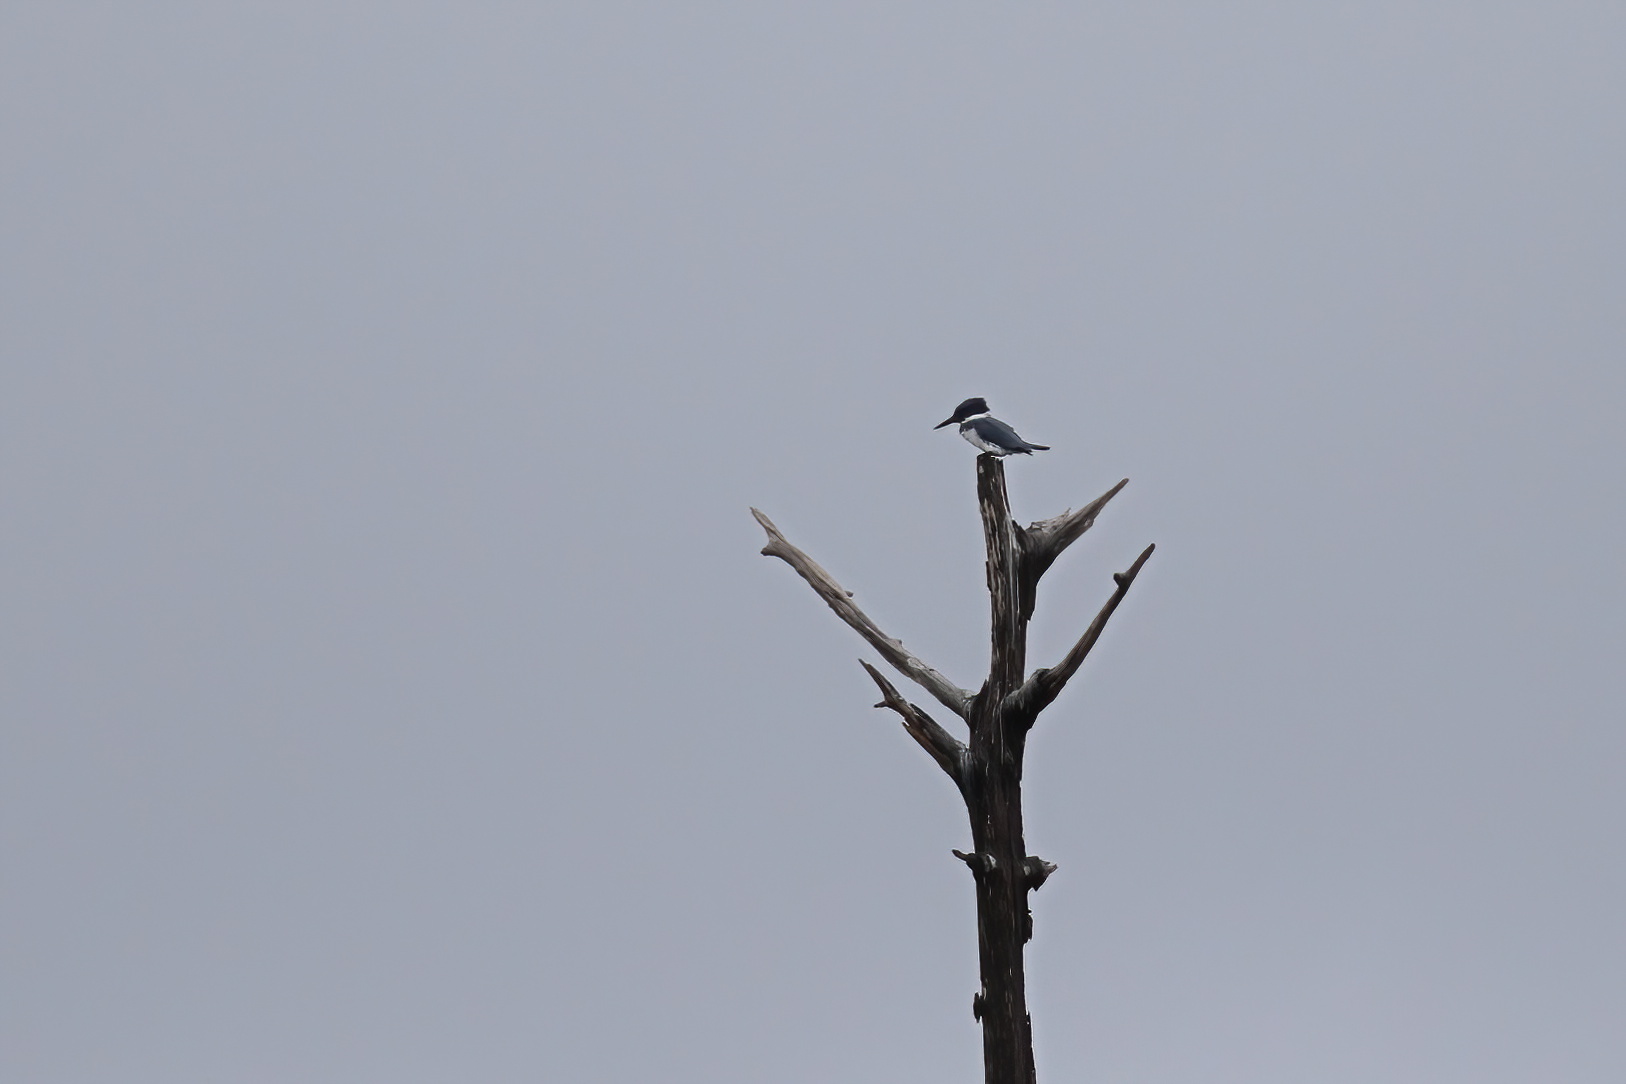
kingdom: Animalia
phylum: Chordata
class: Aves
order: Coraciiformes
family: Alcedinidae
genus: Megaceryle
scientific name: Megaceryle alcyon
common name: Belted kingfisher
